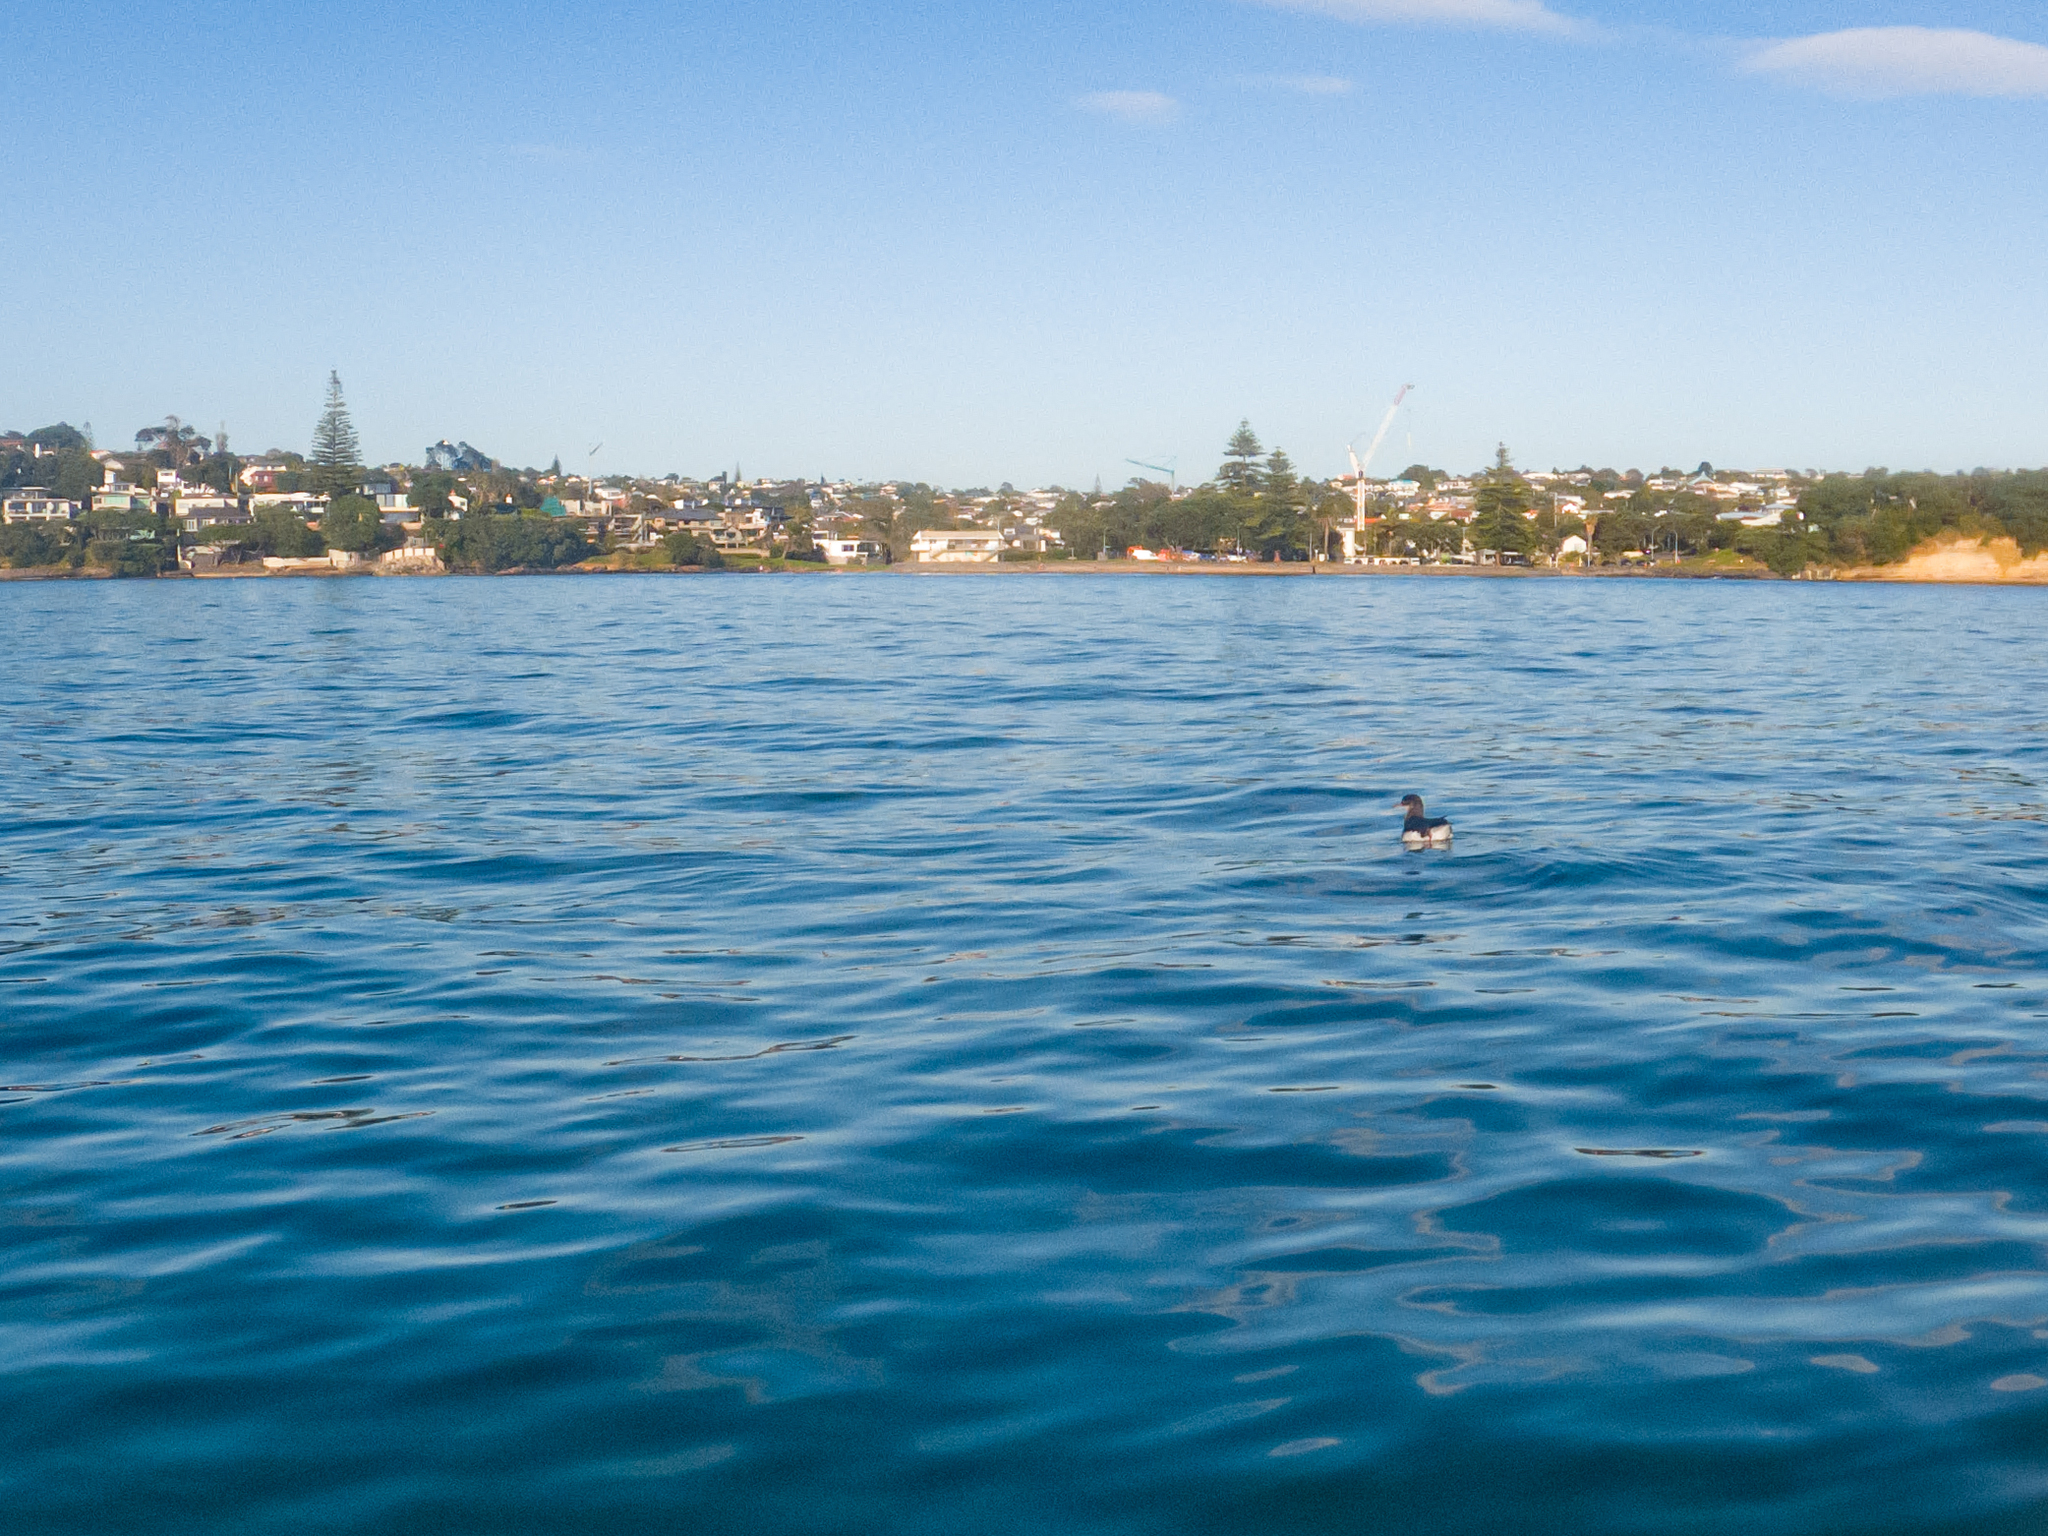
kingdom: Animalia
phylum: Chordata
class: Aves
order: Procellariiformes
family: Procellariidae
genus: Puffinus
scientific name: Puffinus gavia
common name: Fluttering shearwater
